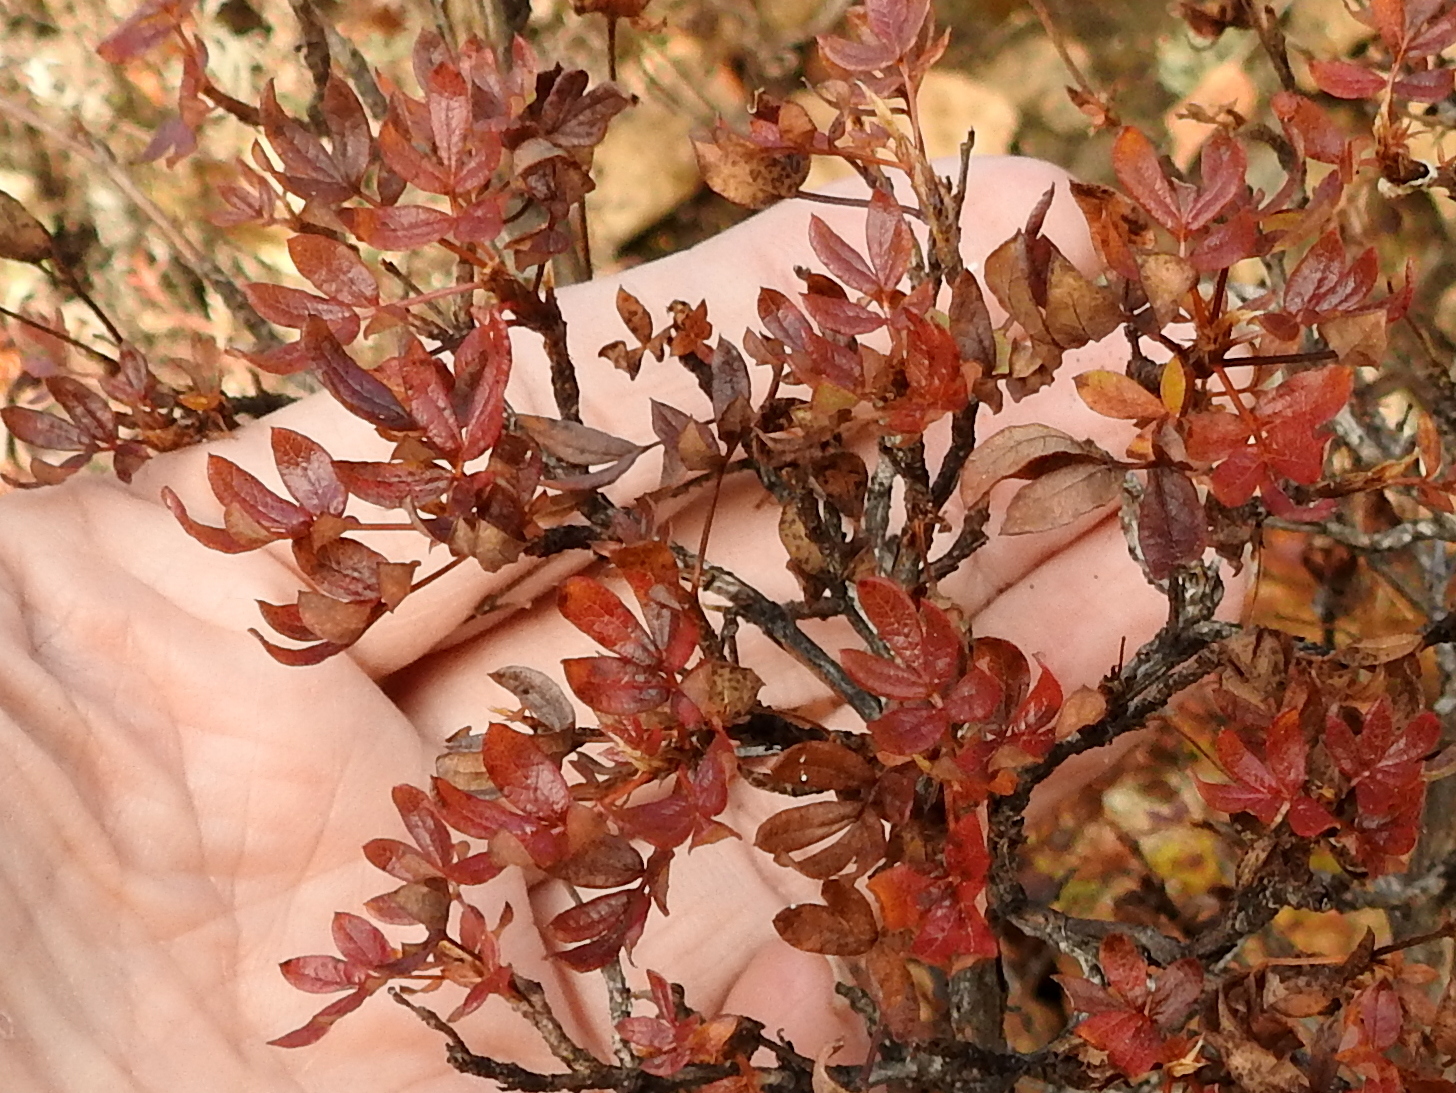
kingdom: Plantae
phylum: Tracheophyta
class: Magnoliopsida
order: Rosales
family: Rosaceae
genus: Dasiphora
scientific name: Dasiphora fruticosa
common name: Shrubby cinquefoil
